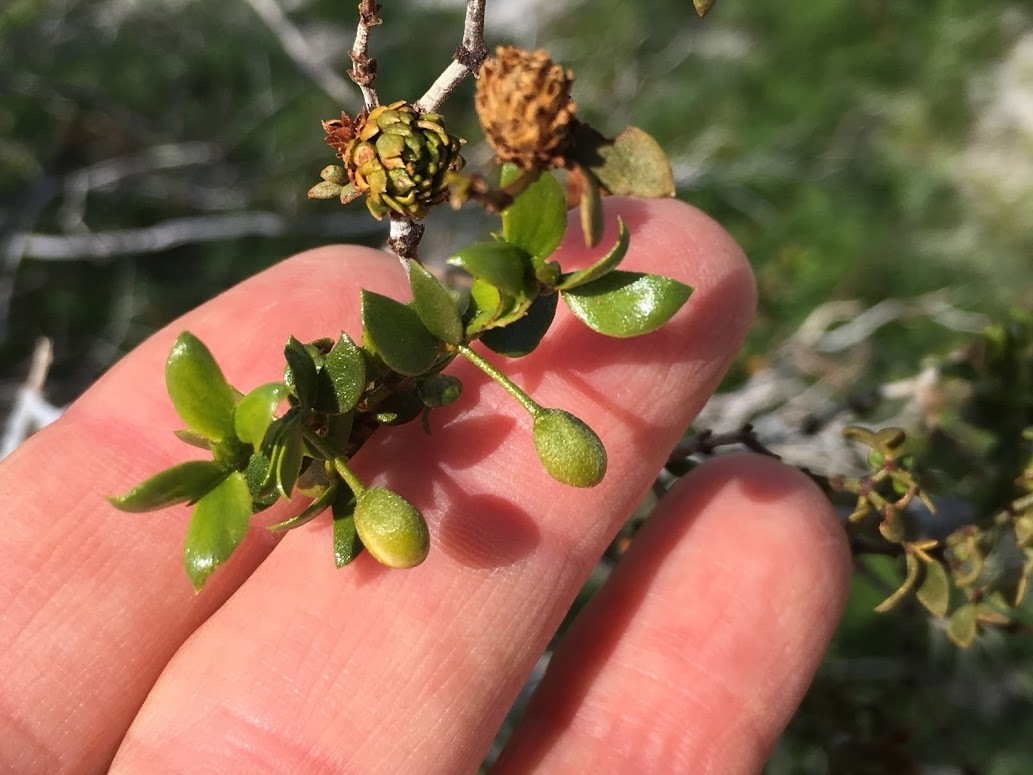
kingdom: Plantae
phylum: Tracheophyta
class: Magnoliopsida
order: Zygophyllales
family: Zygophyllaceae
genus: Larrea
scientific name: Larrea tridentata
